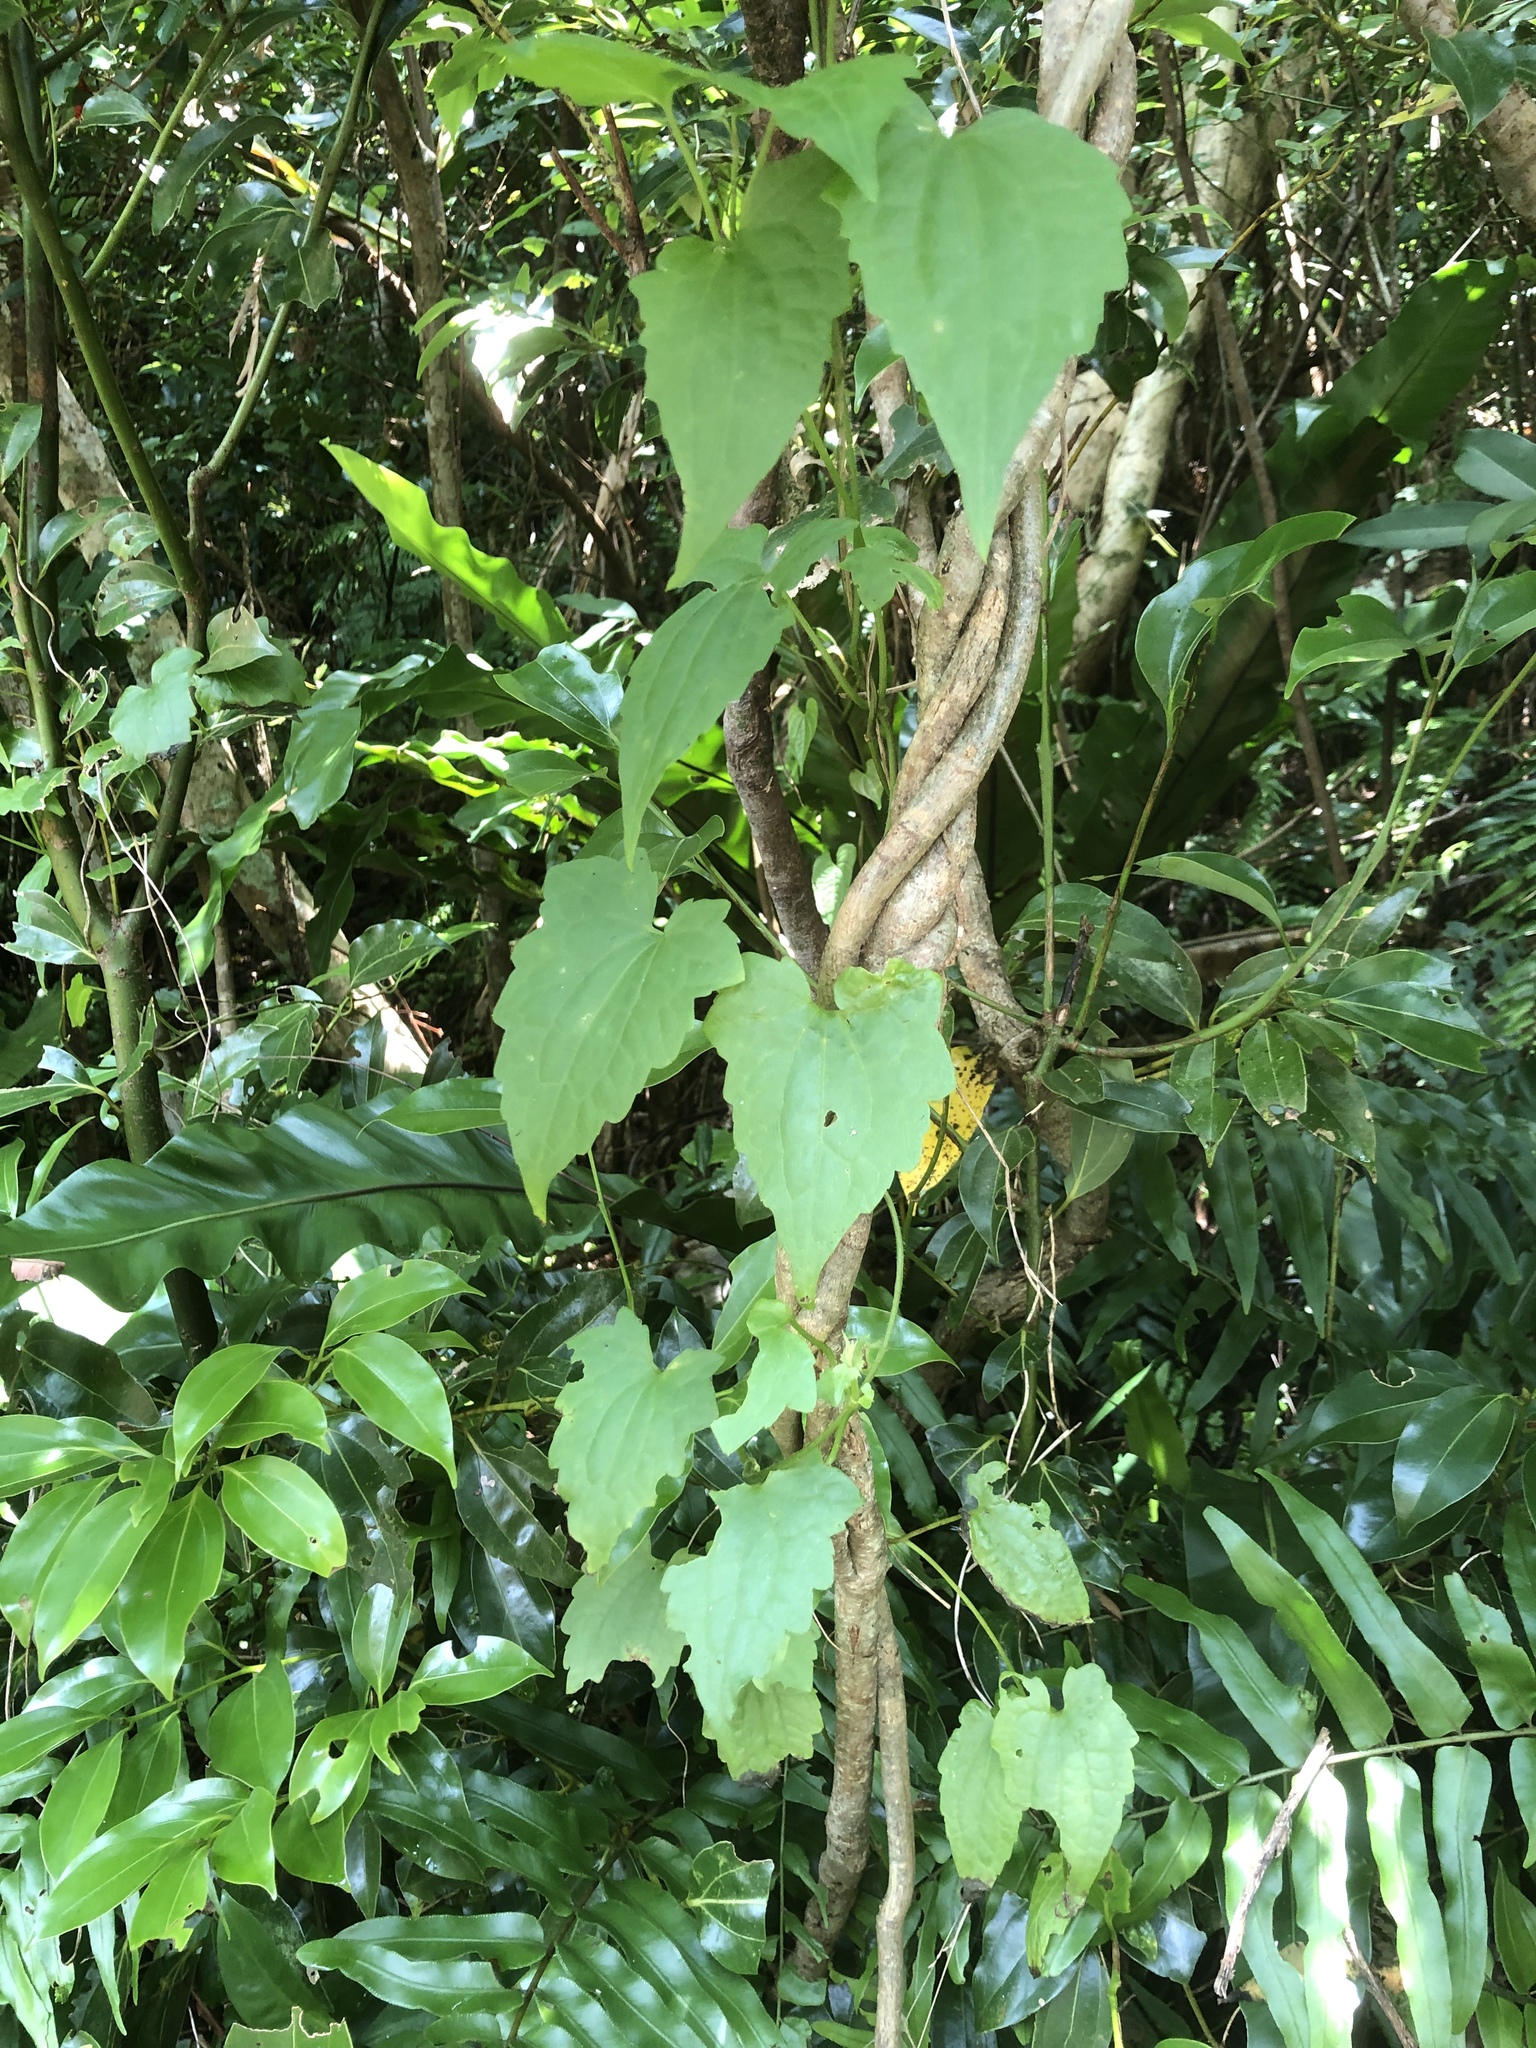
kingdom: Plantae
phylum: Tracheophyta
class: Magnoliopsida
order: Asterales
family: Asteraceae
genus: Mikania
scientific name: Mikania micrantha
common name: Mile-a-minute
